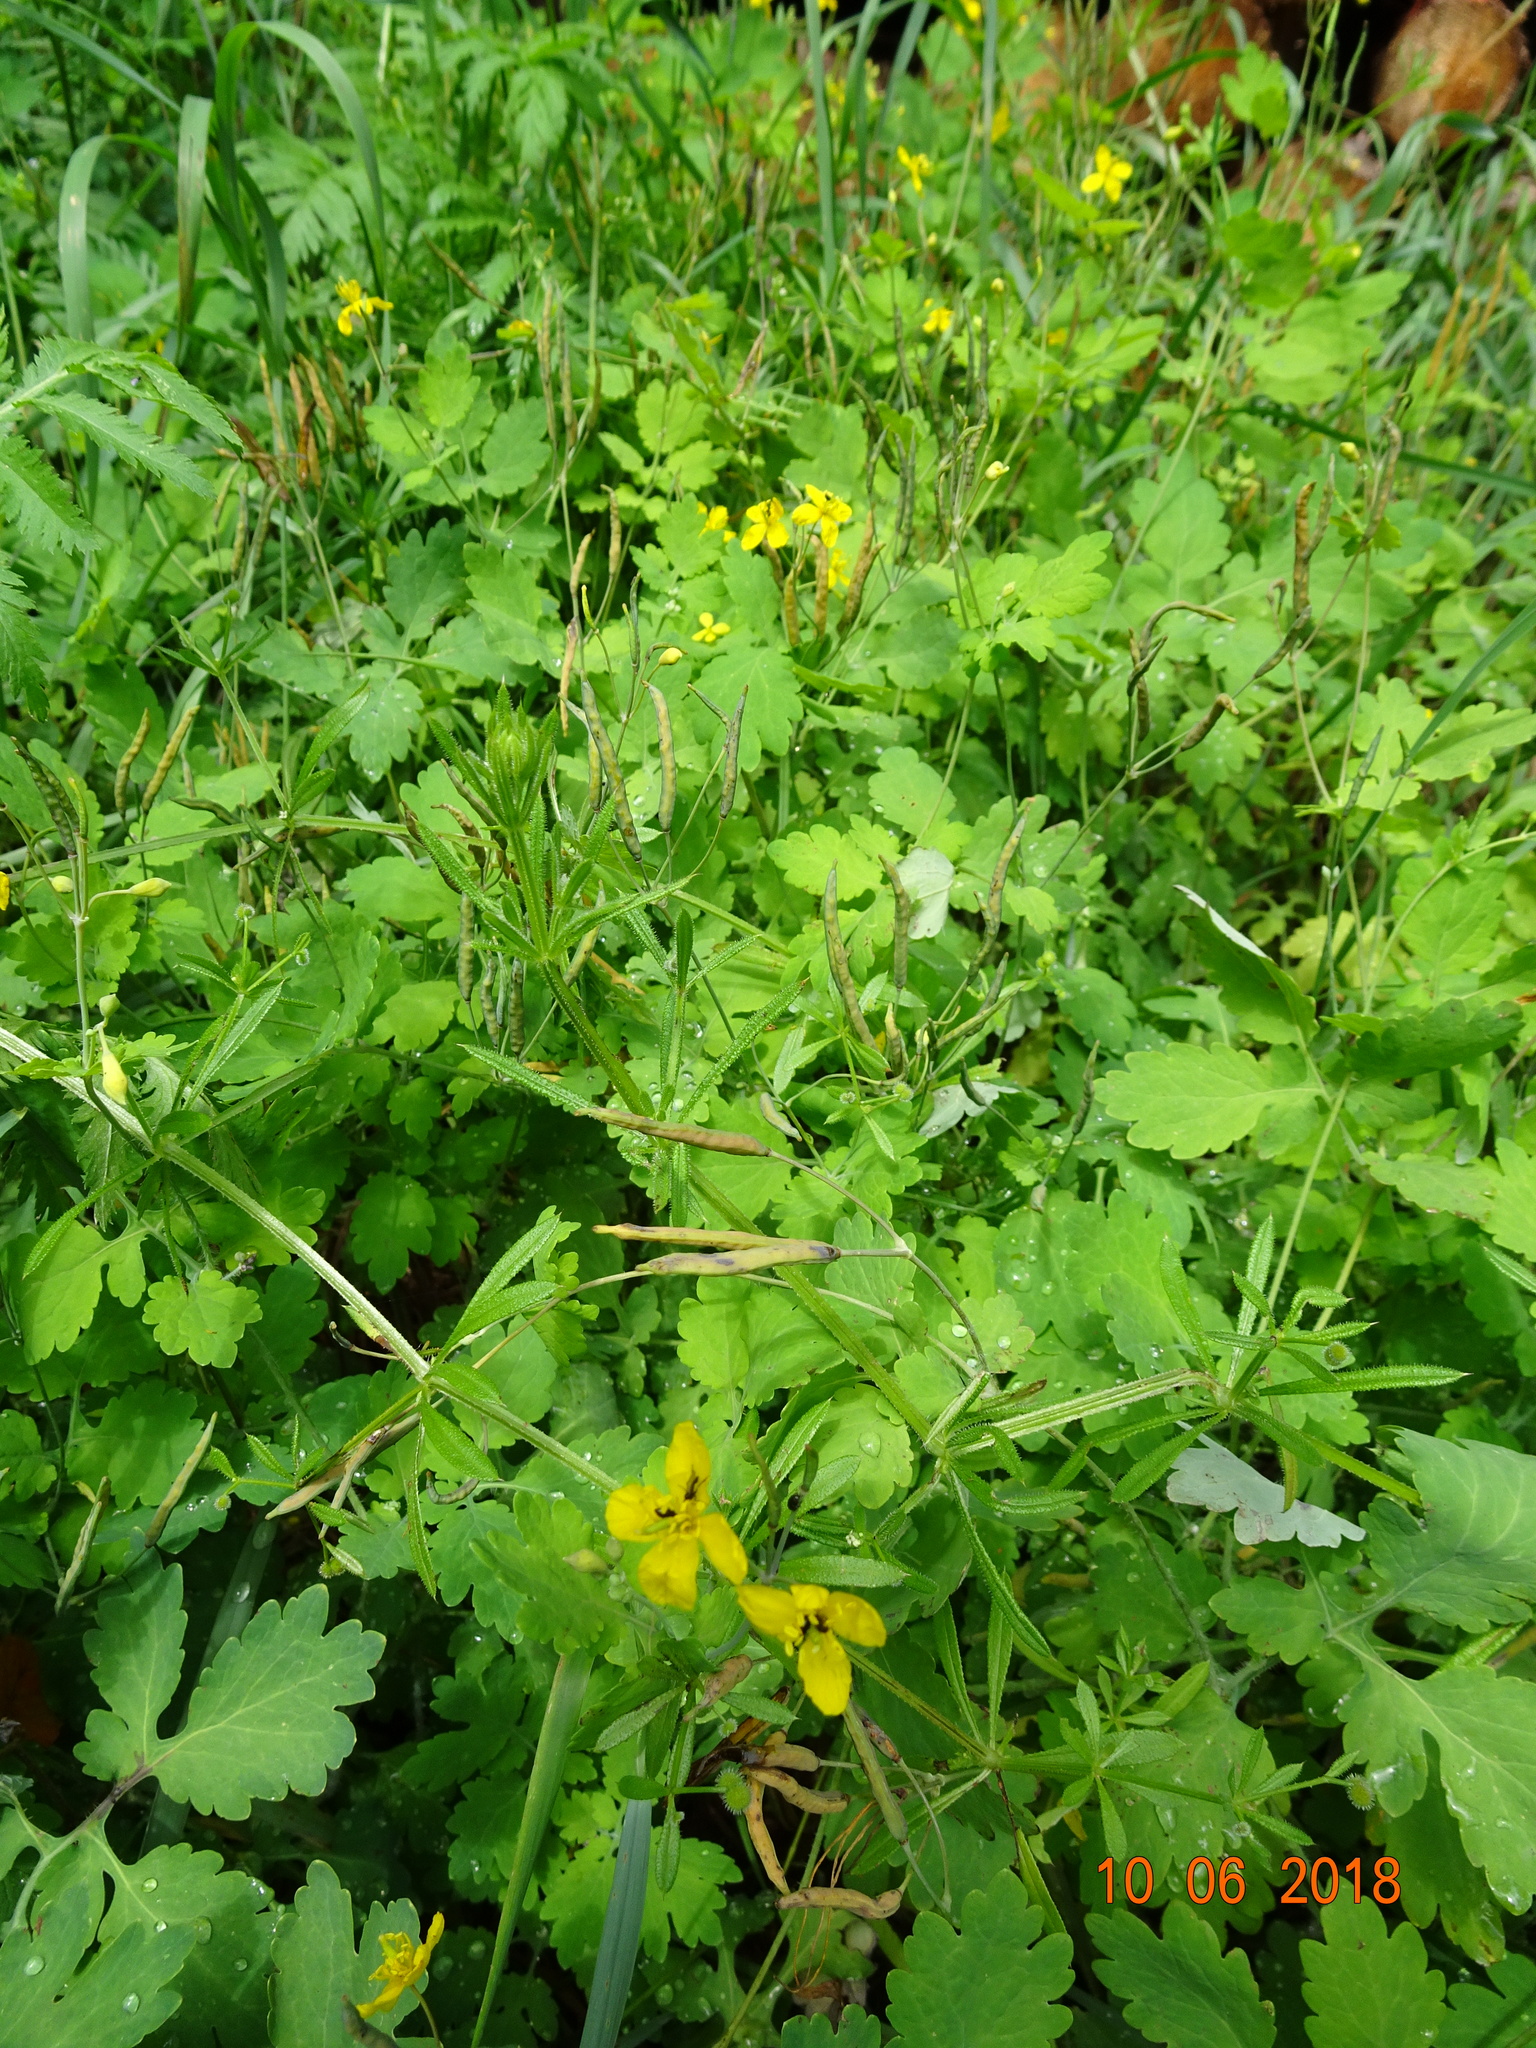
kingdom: Plantae
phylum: Tracheophyta
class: Magnoliopsida
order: Ranunculales
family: Papaveraceae
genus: Chelidonium
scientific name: Chelidonium majus
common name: Greater celandine
